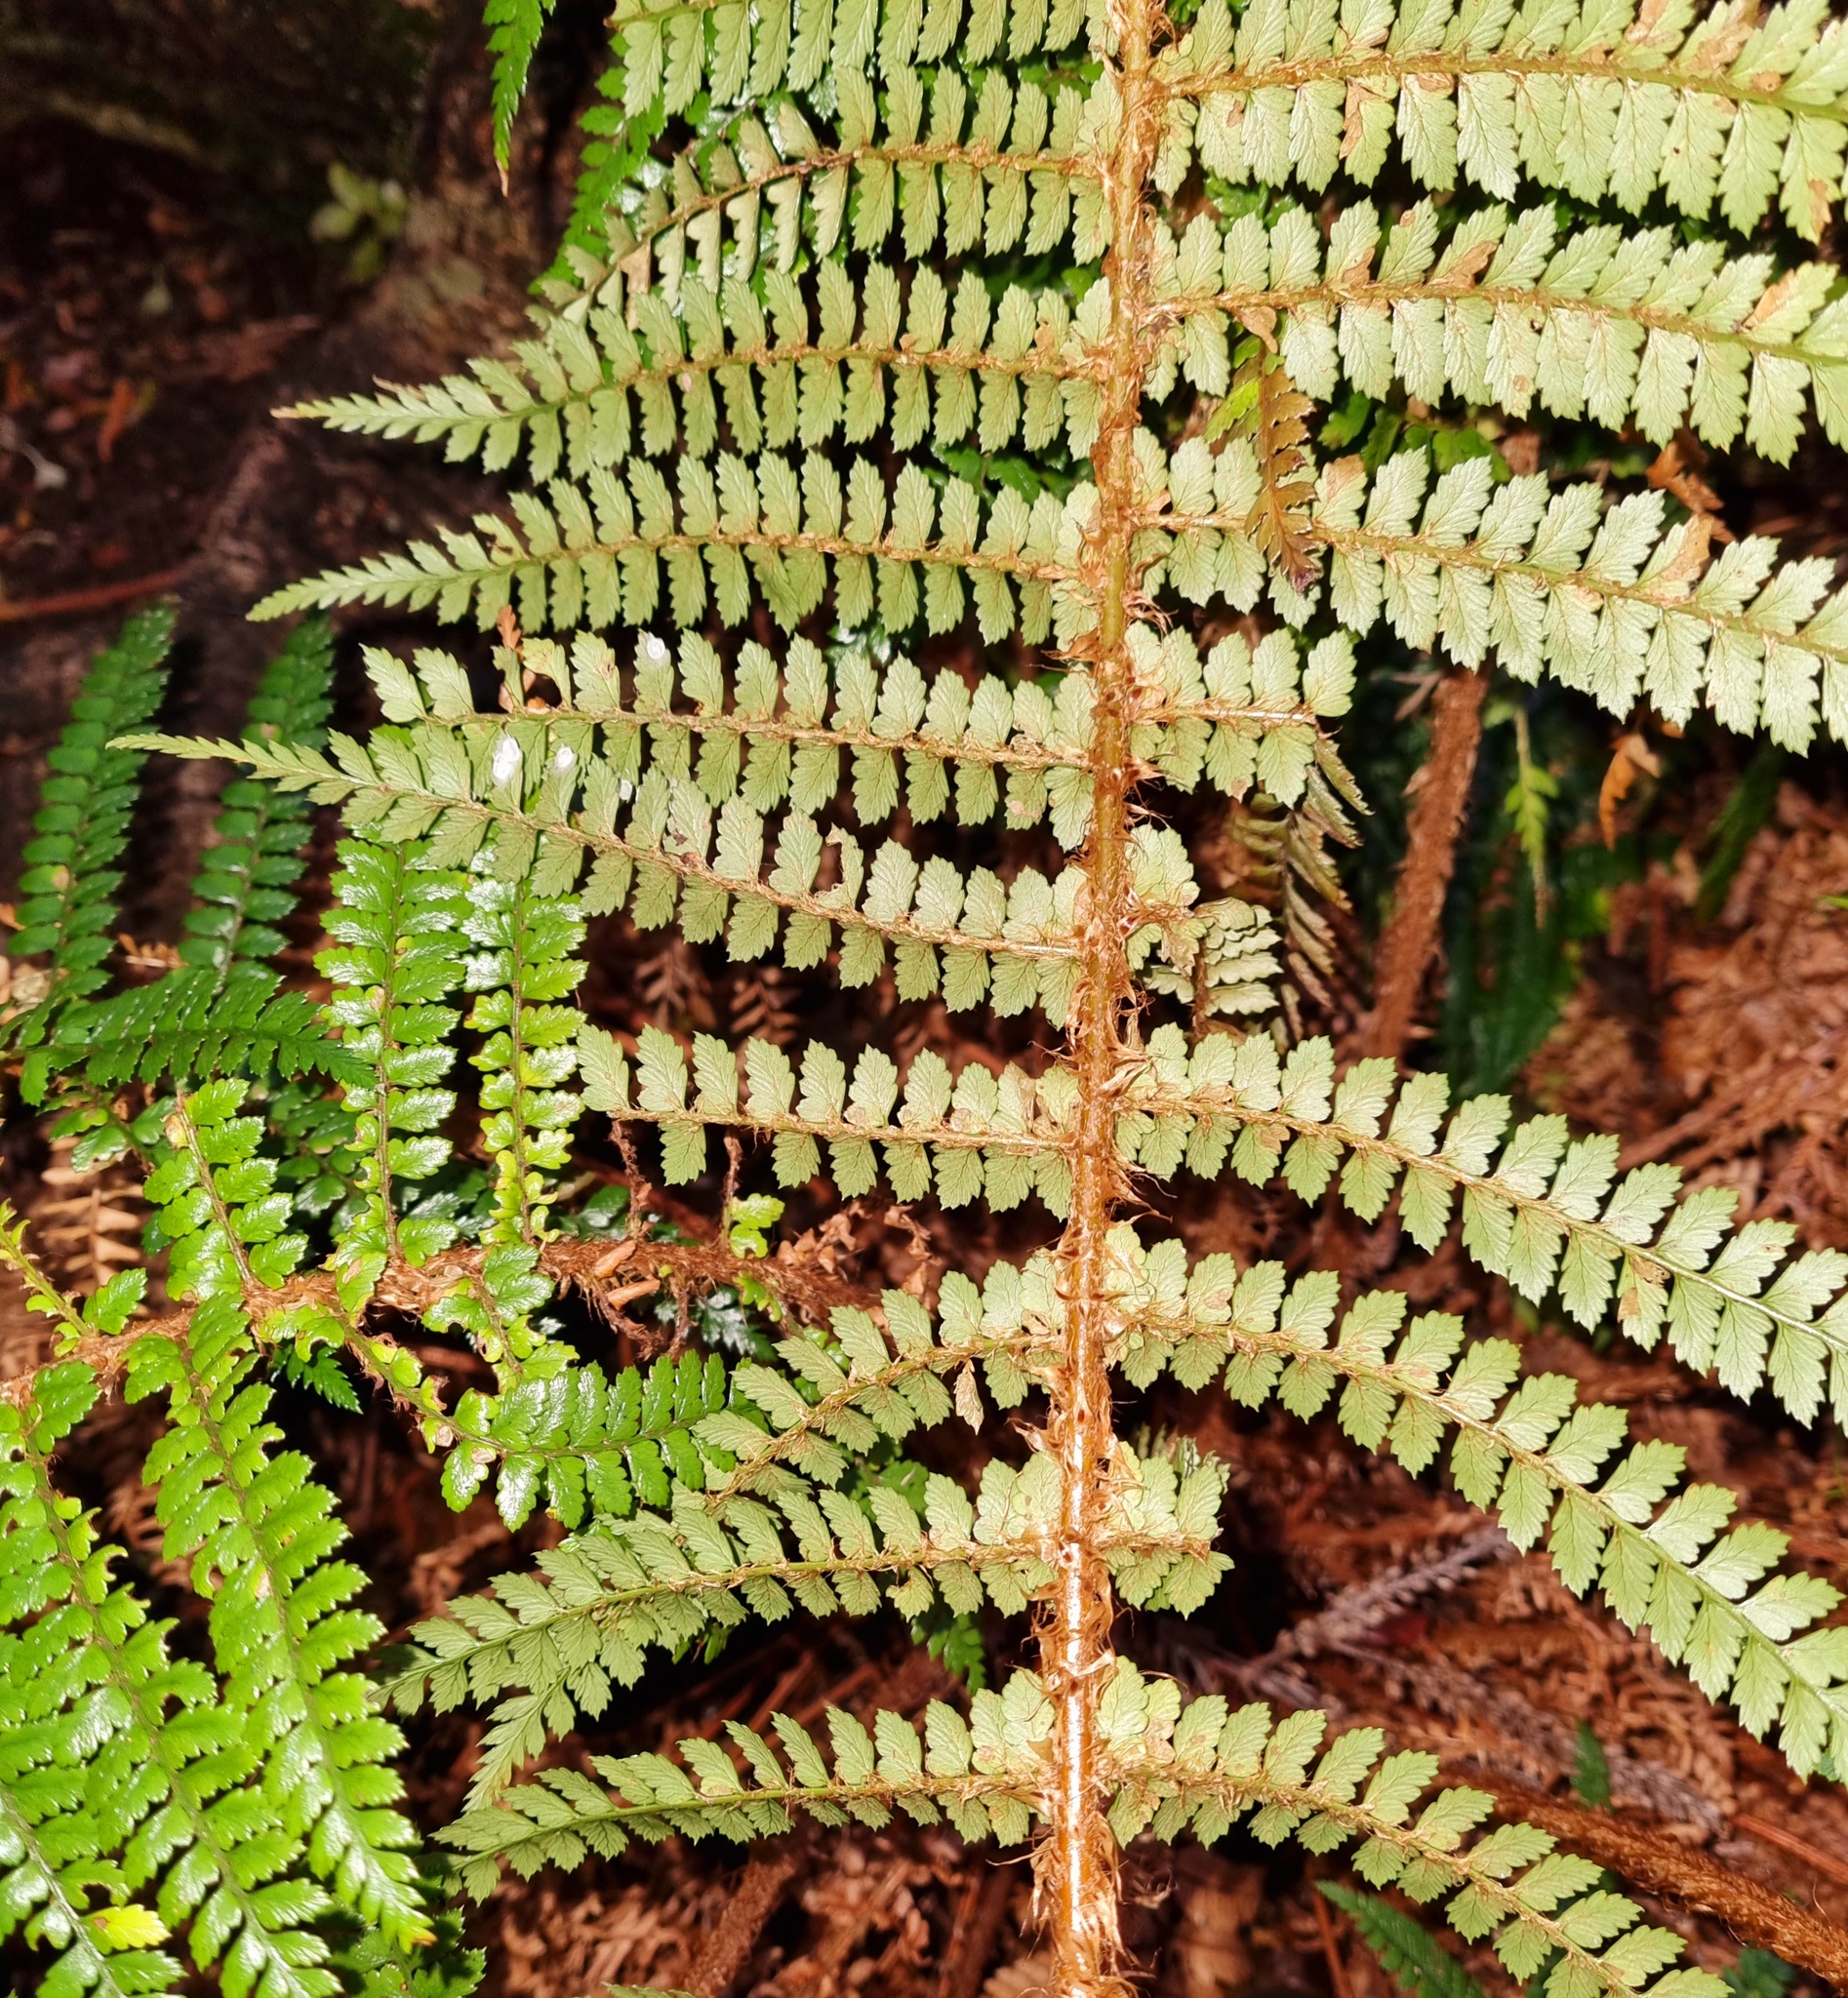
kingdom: Plantae
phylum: Tracheophyta
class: Polypodiopsida
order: Polypodiales
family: Dryopteridaceae
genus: Polystichum
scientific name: Polystichum vestitum
